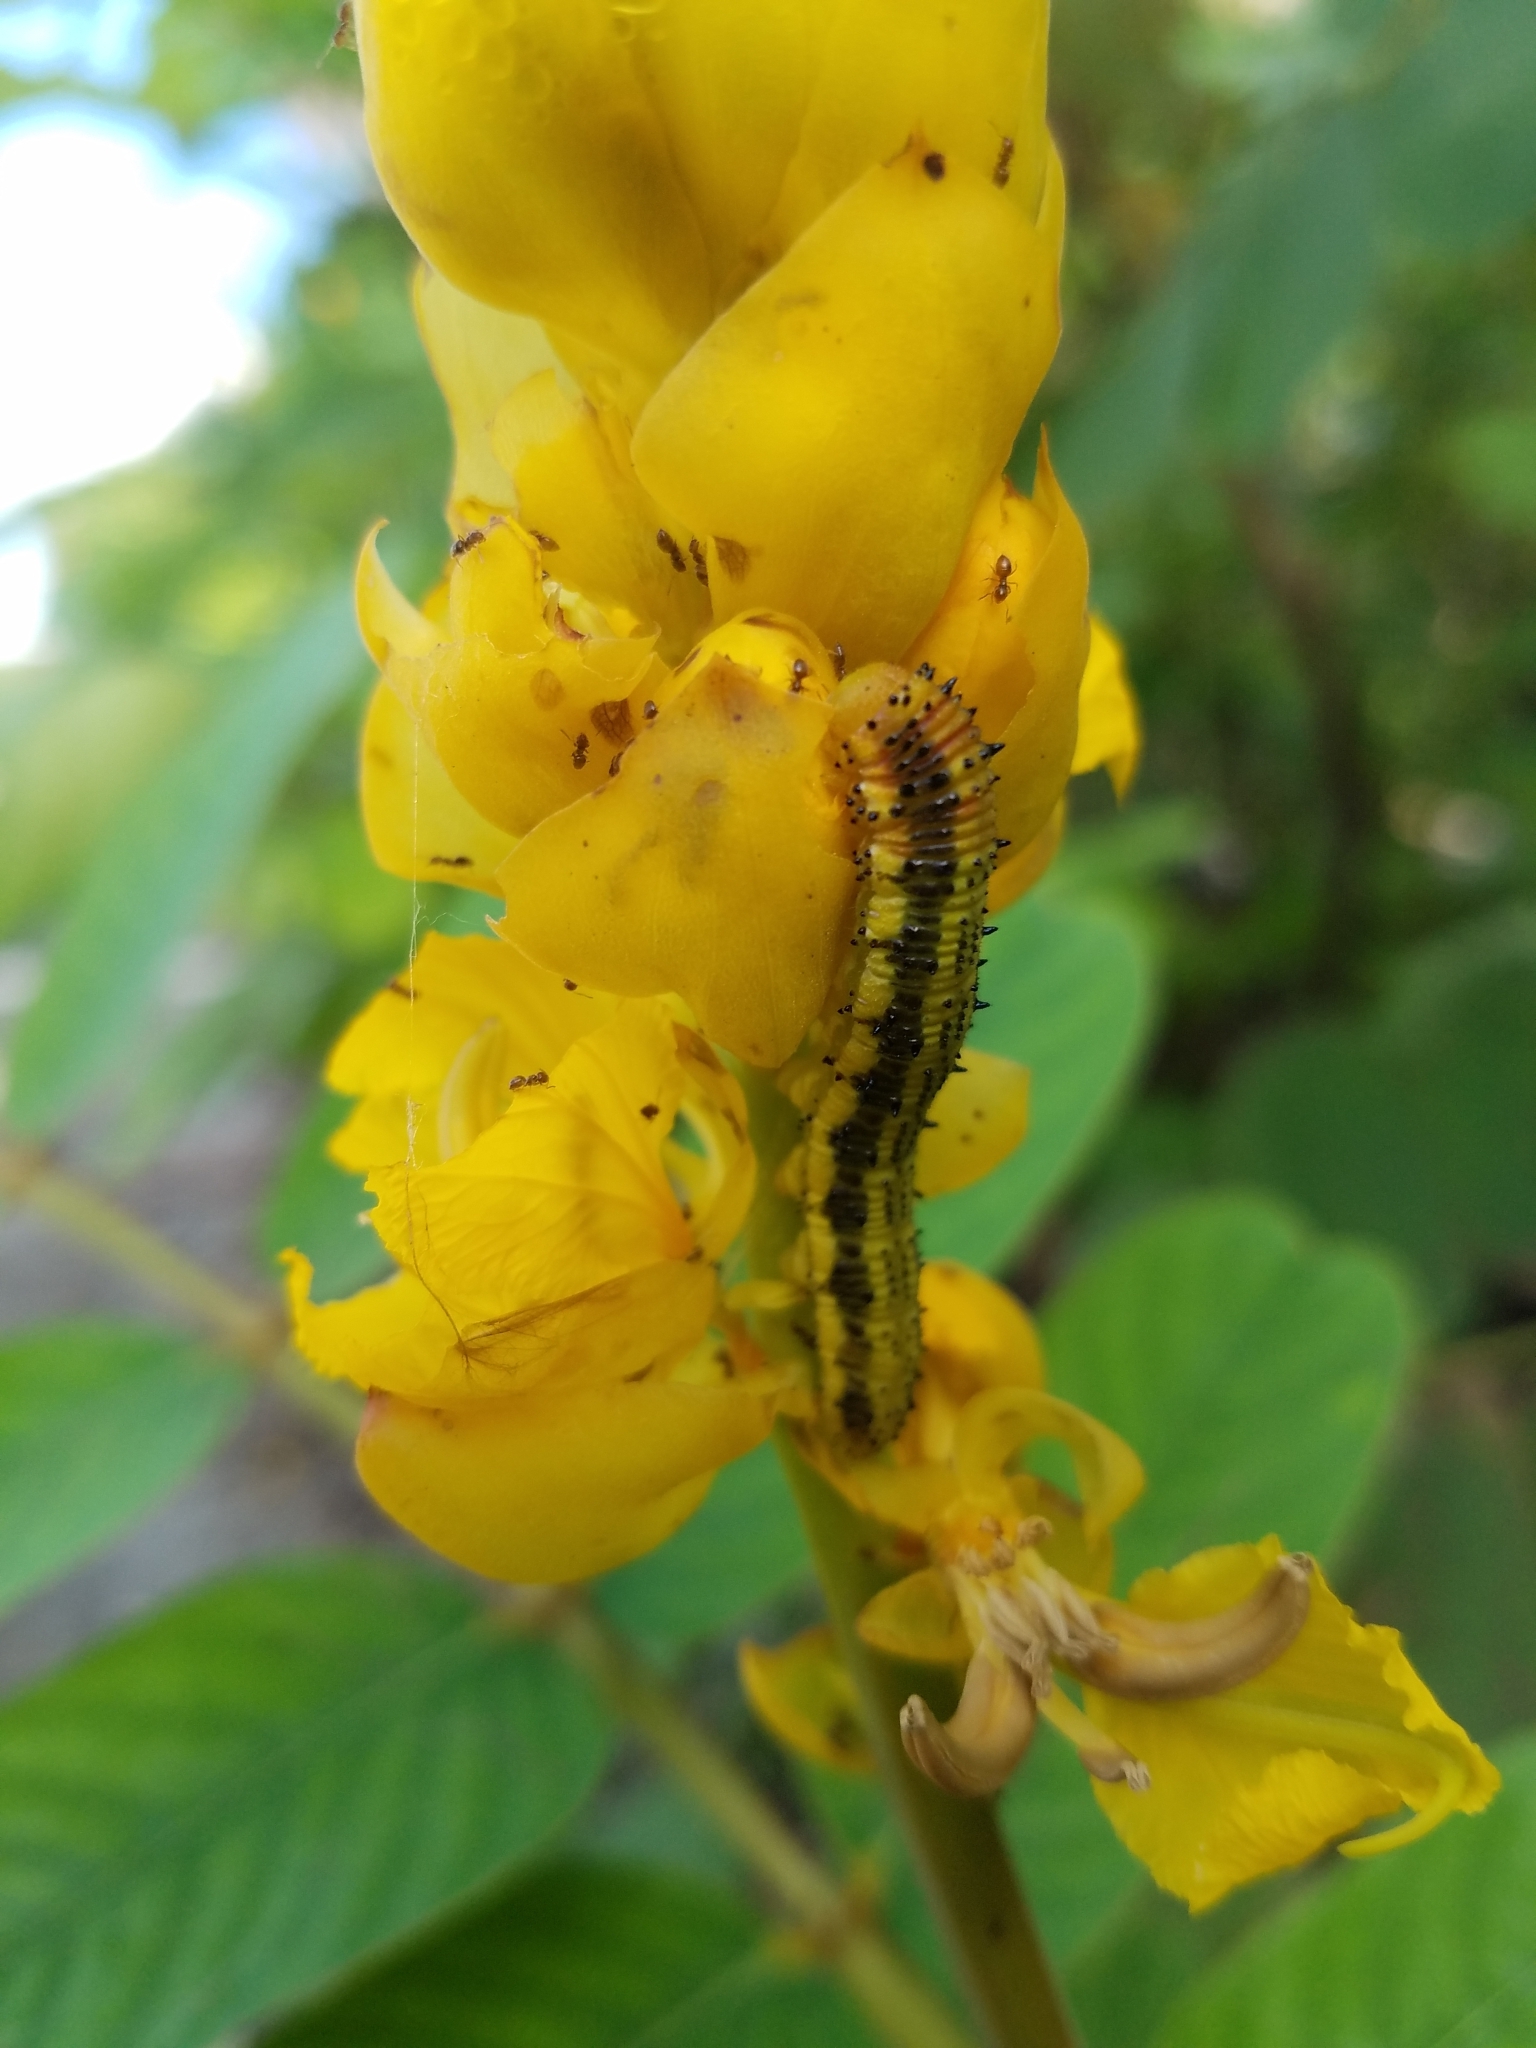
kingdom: Animalia
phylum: Arthropoda
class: Insecta
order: Lepidoptera
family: Pieridae
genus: Phoebis
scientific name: Phoebis philea
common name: Orange-barred giant sulphur
